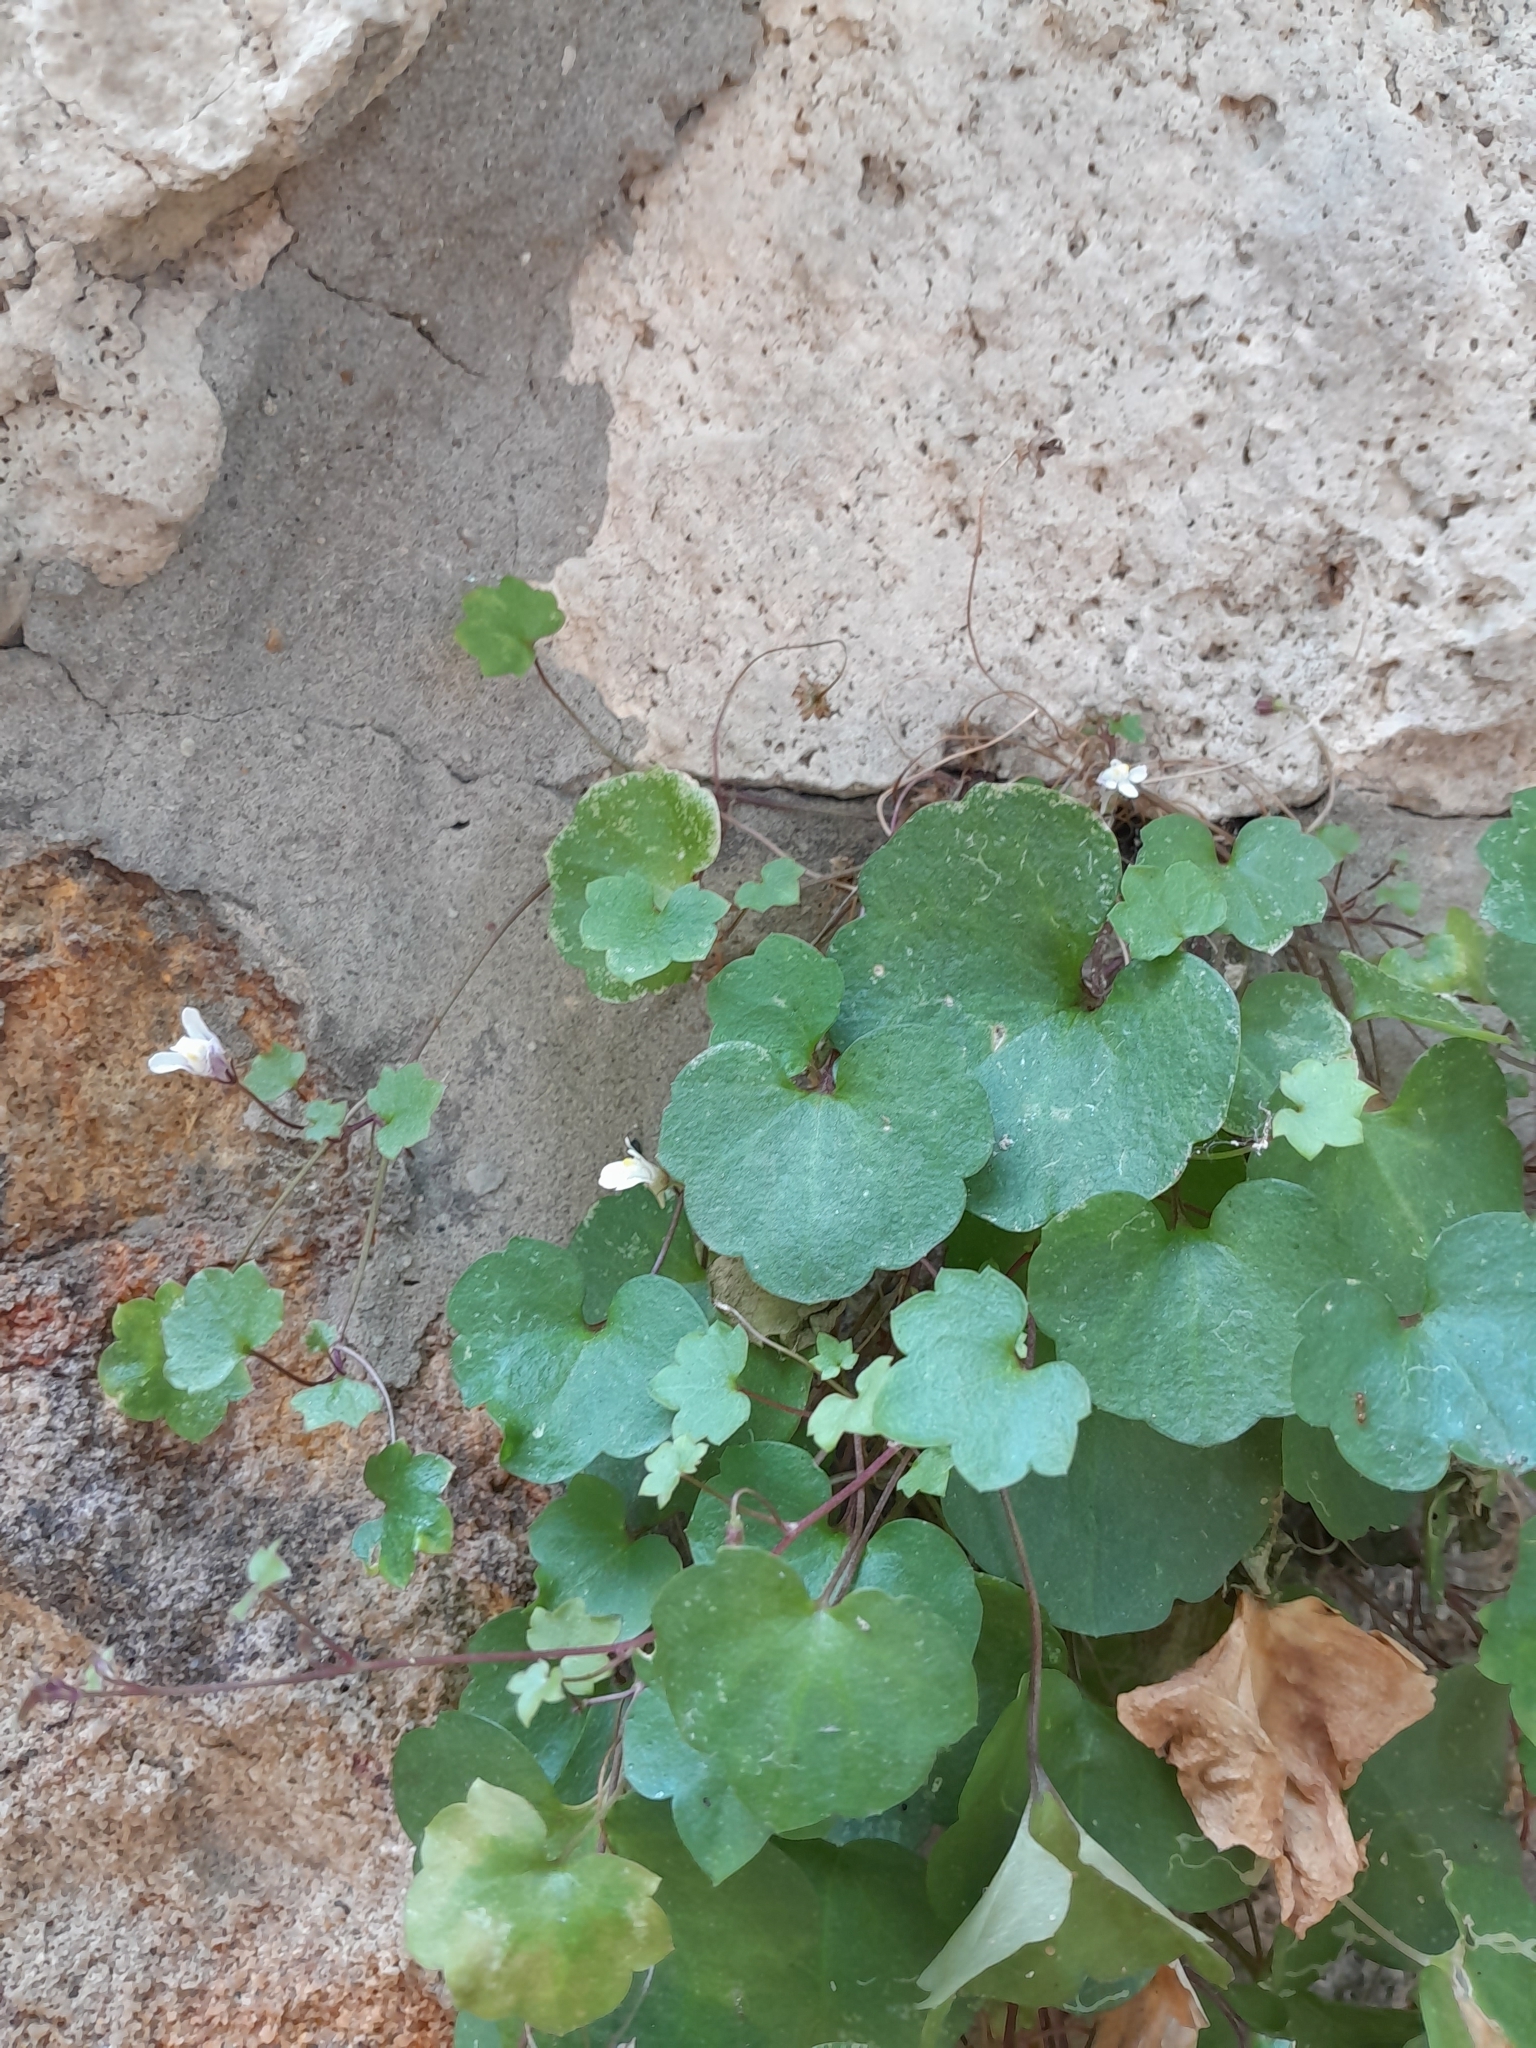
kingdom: Plantae
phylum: Tracheophyta
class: Magnoliopsida
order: Lamiales
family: Plantaginaceae
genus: Cymbalaria
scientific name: Cymbalaria muralis
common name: Ivy-leaved toadflax
